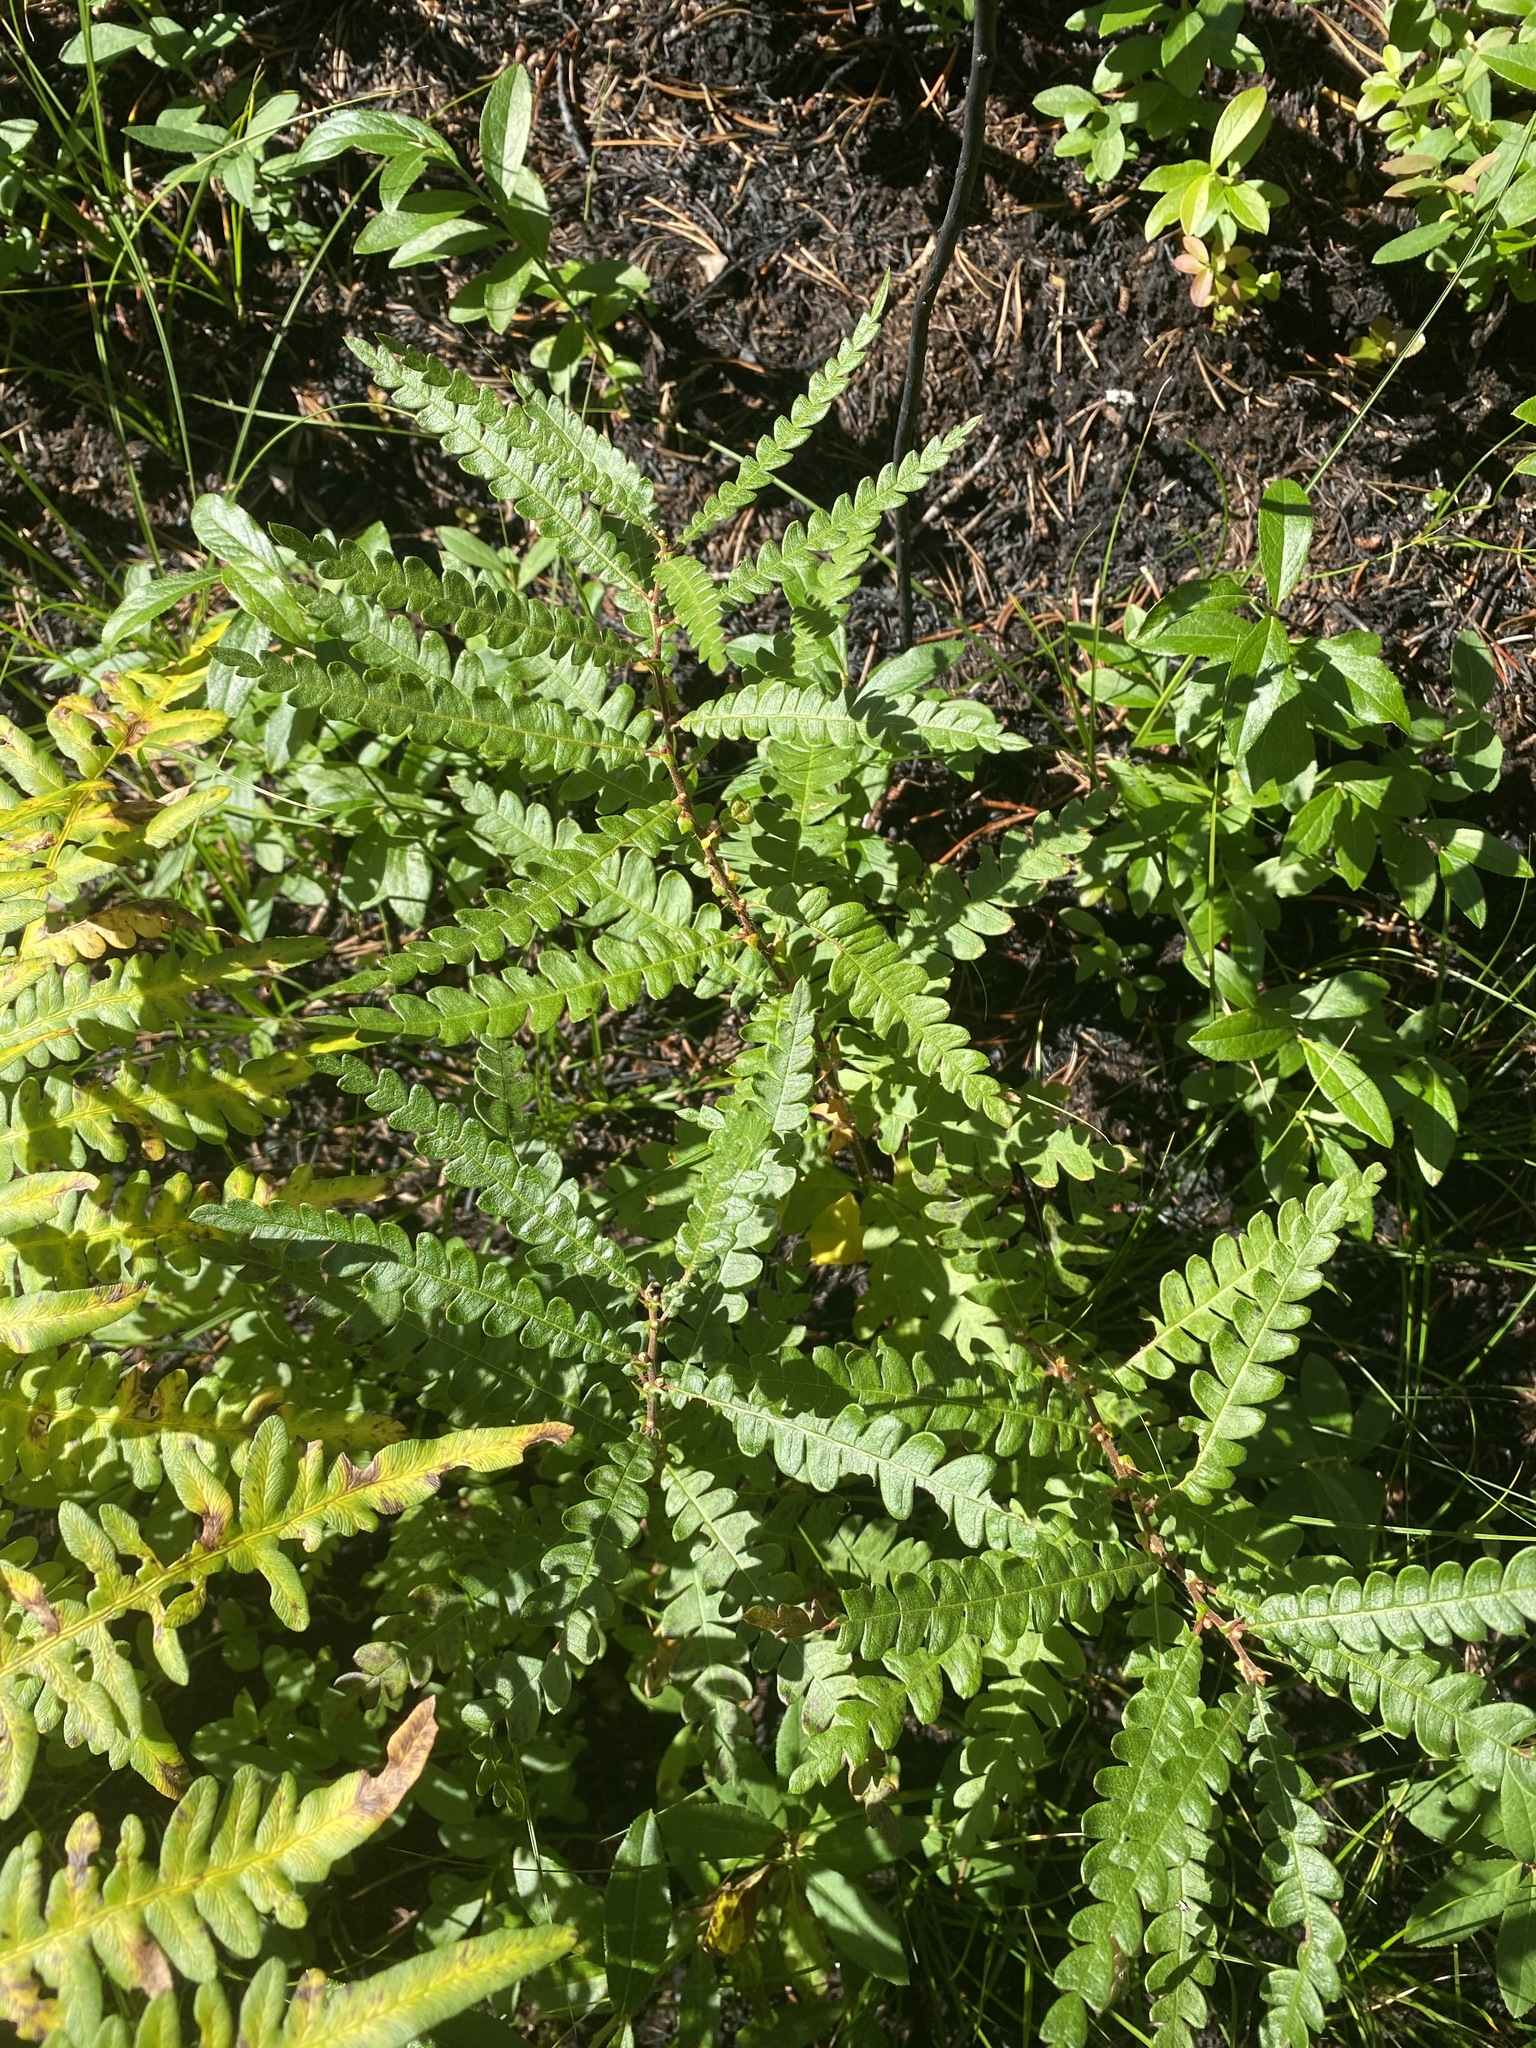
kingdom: Plantae
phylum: Tracheophyta
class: Magnoliopsida
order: Fagales
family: Myricaceae
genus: Comptonia
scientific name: Comptonia peregrina
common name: Sweet-fern
